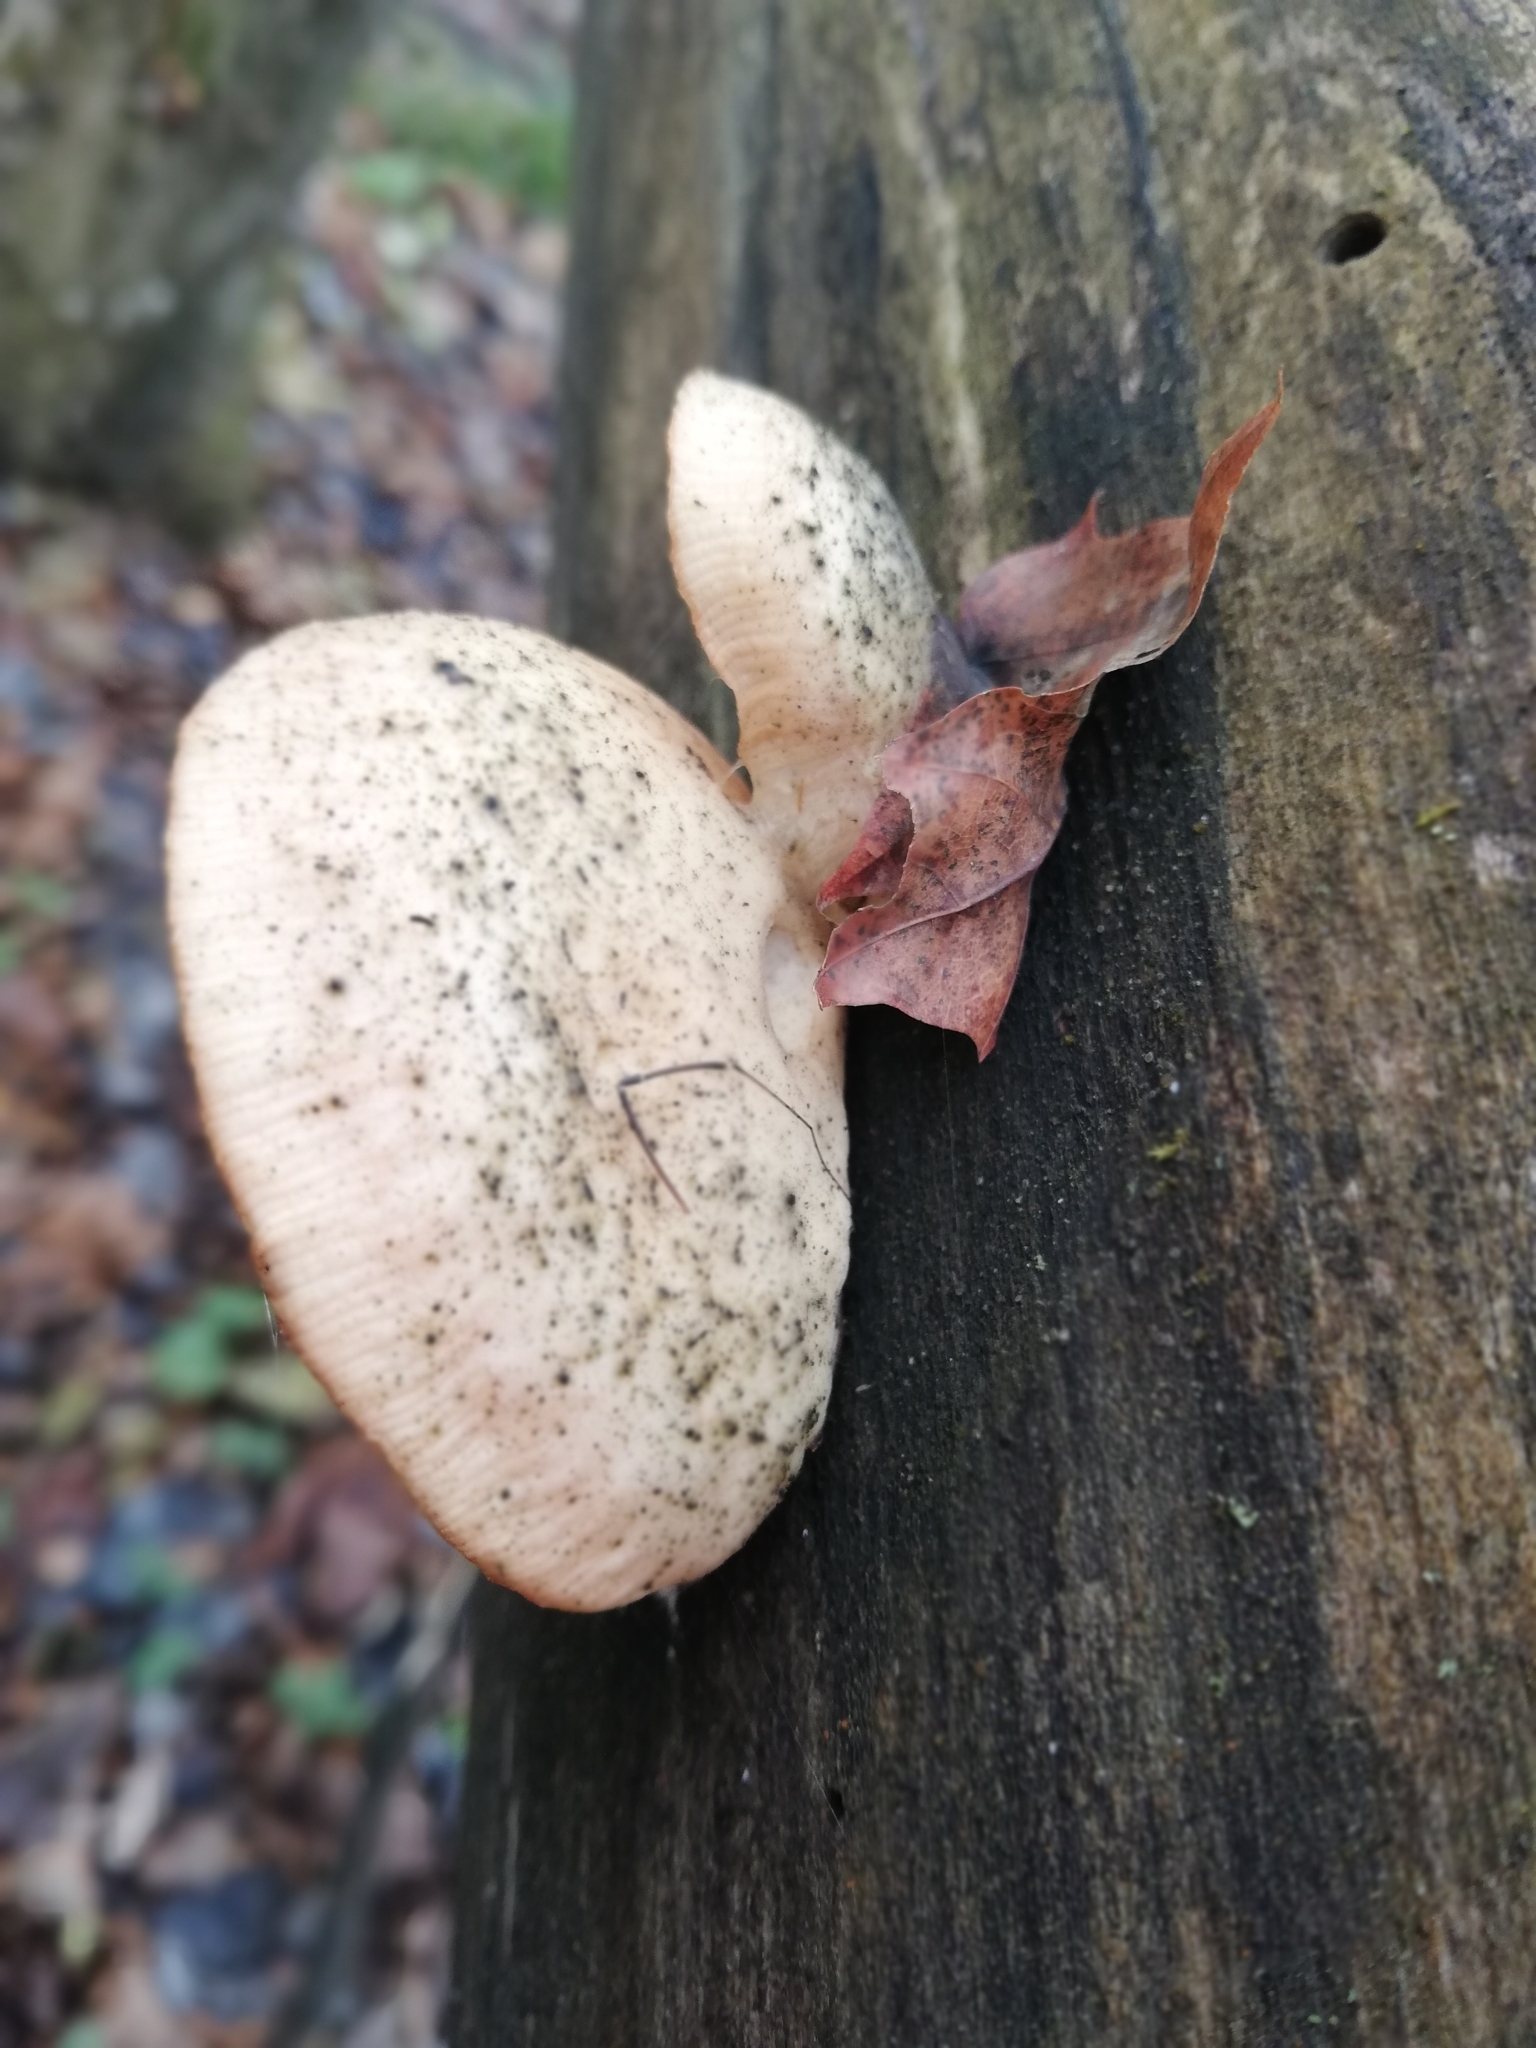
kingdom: Fungi
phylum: Basidiomycota
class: Agaricomycetes
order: Agaricales
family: Physalacriaceae
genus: Rhodotus
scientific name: Rhodotus palmatus
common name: Wrinkled peach
